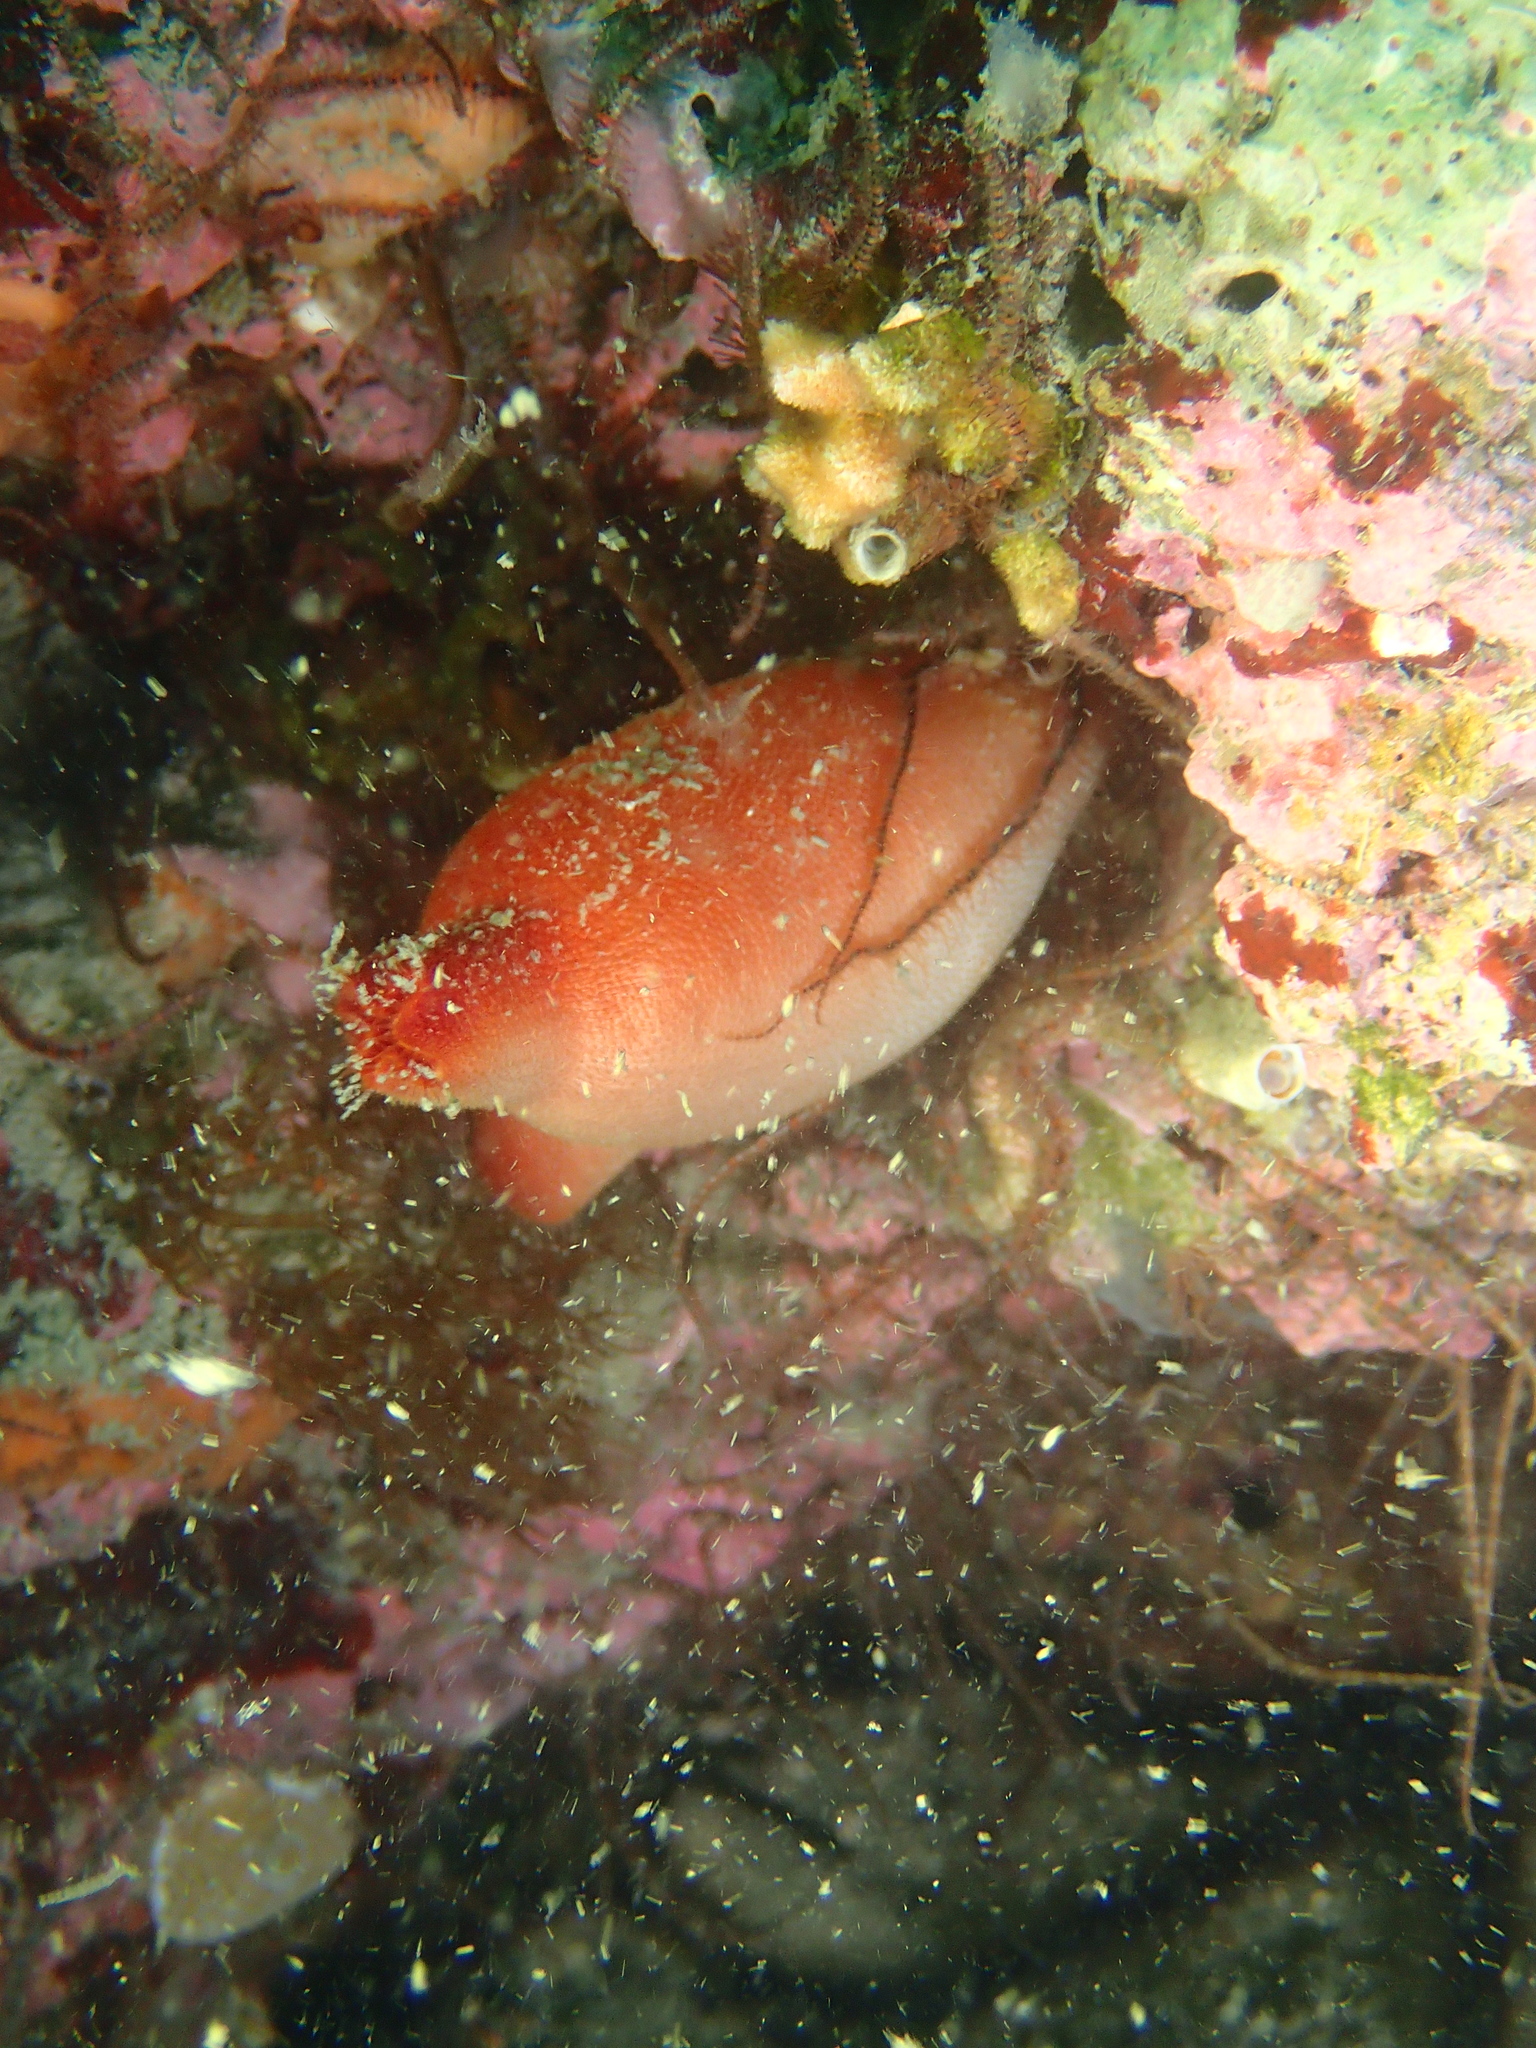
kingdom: Animalia
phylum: Chordata
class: Ascidiacea
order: Stolidobranchia
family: Pyuridae
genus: Halocynthia
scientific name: Halocynthia papillosa
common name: Red sea-squirt
